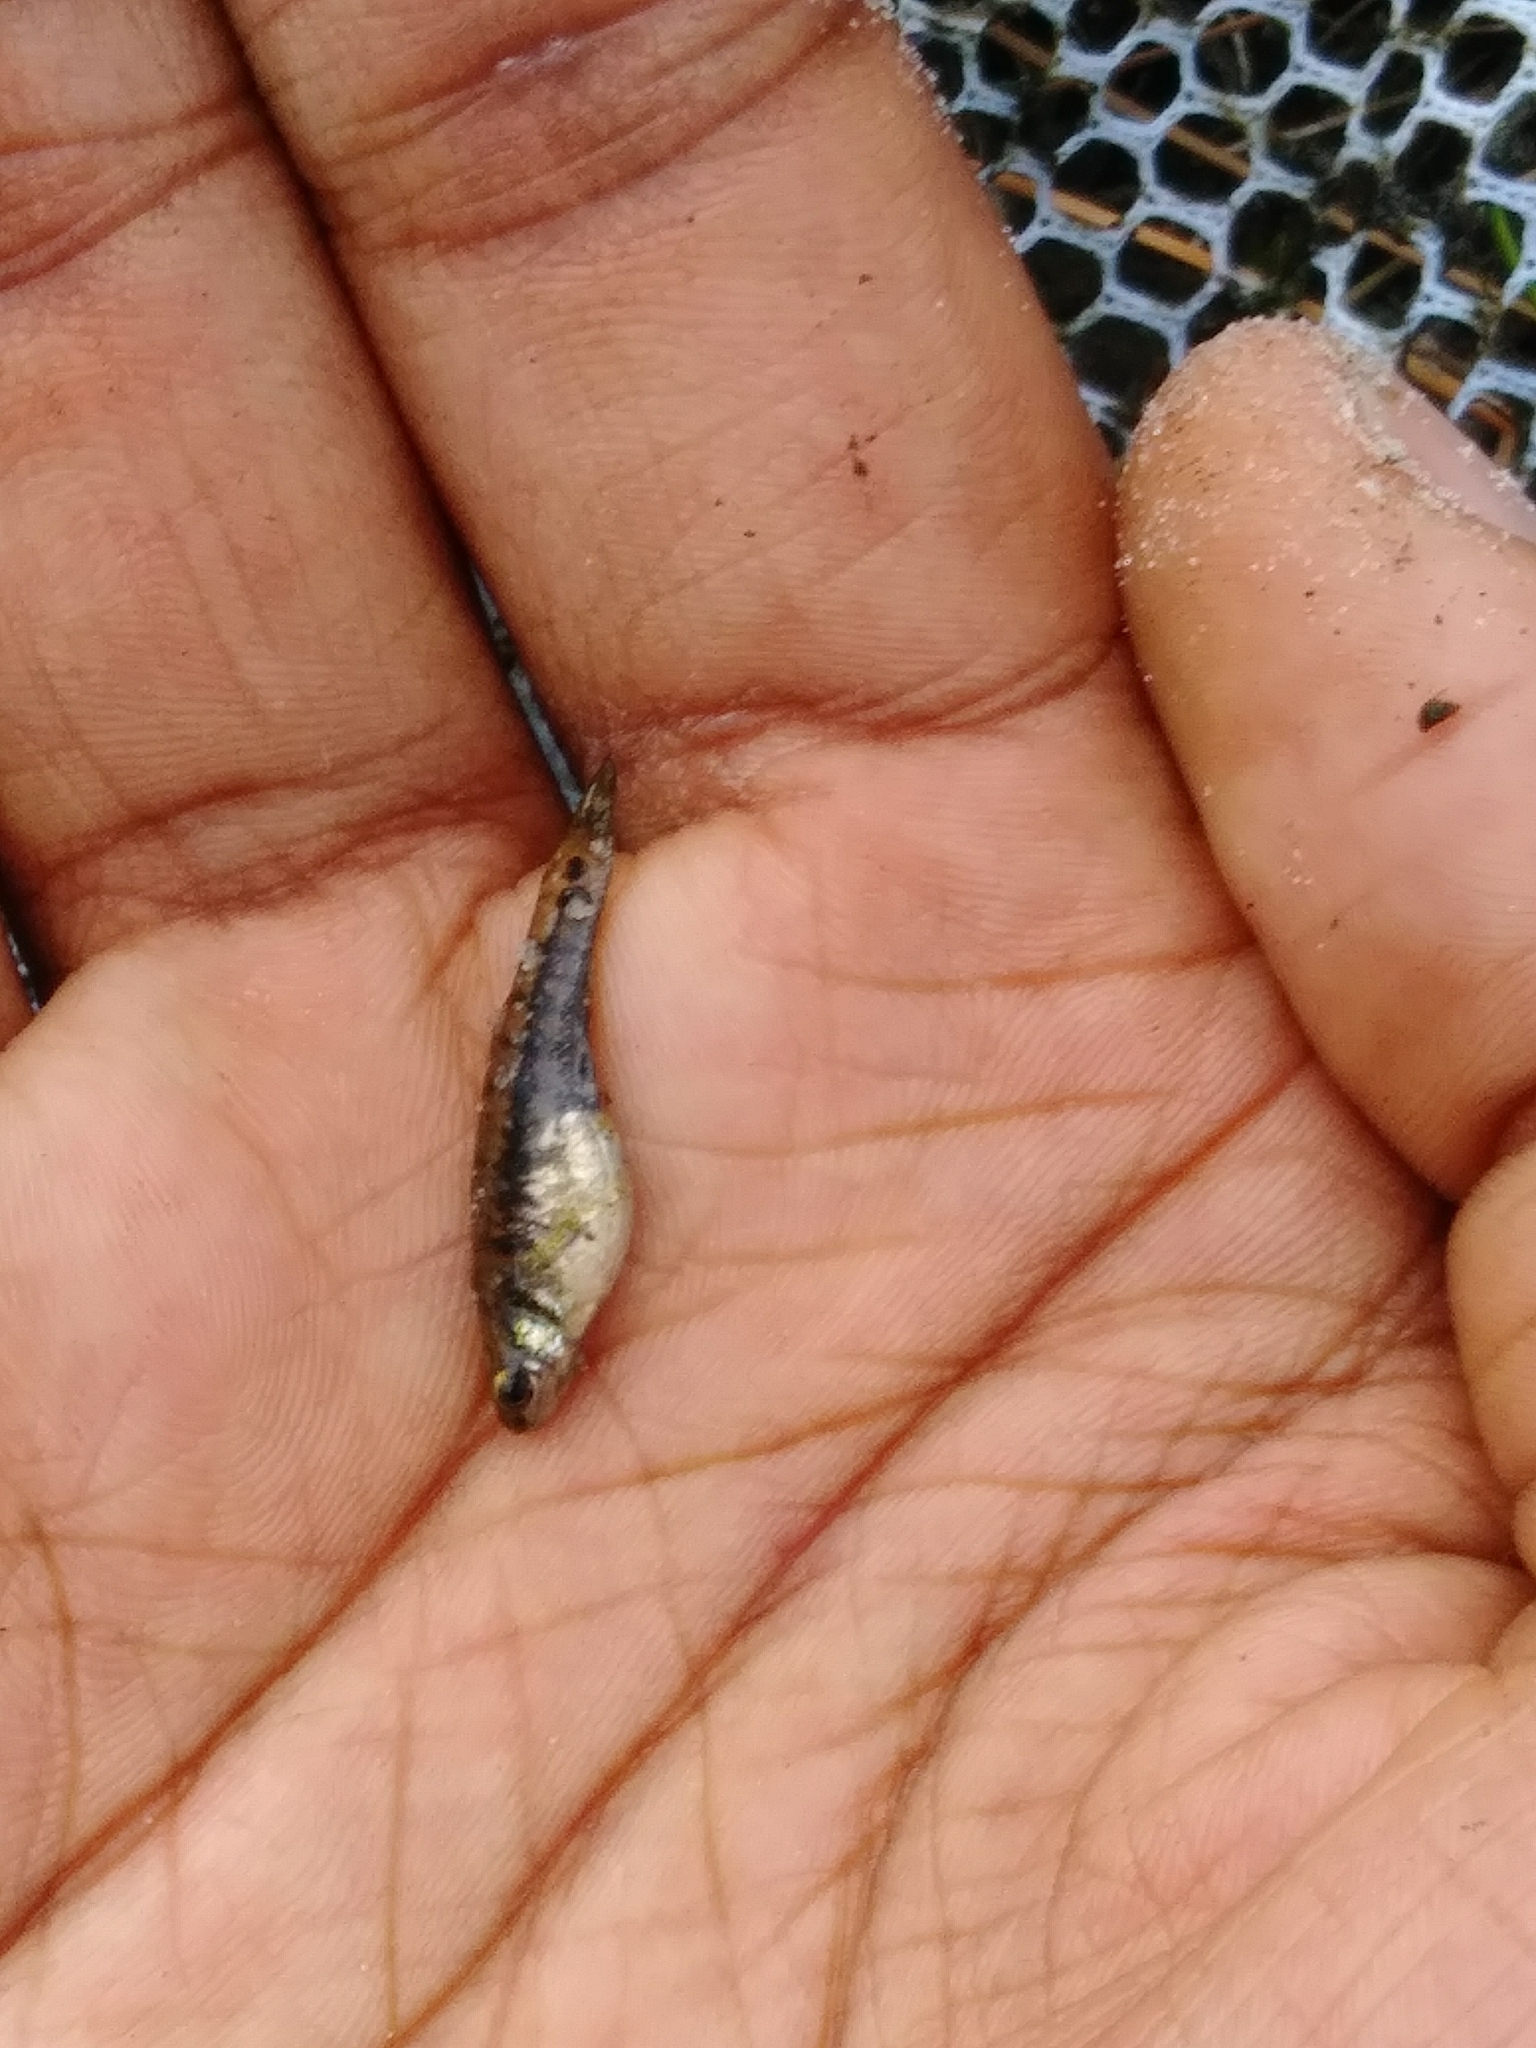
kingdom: Animalia
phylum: Chordata
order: Cyprinodontiformes
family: Poeciliidae
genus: Heterandria
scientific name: Heterandria formosa
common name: Least killifish
